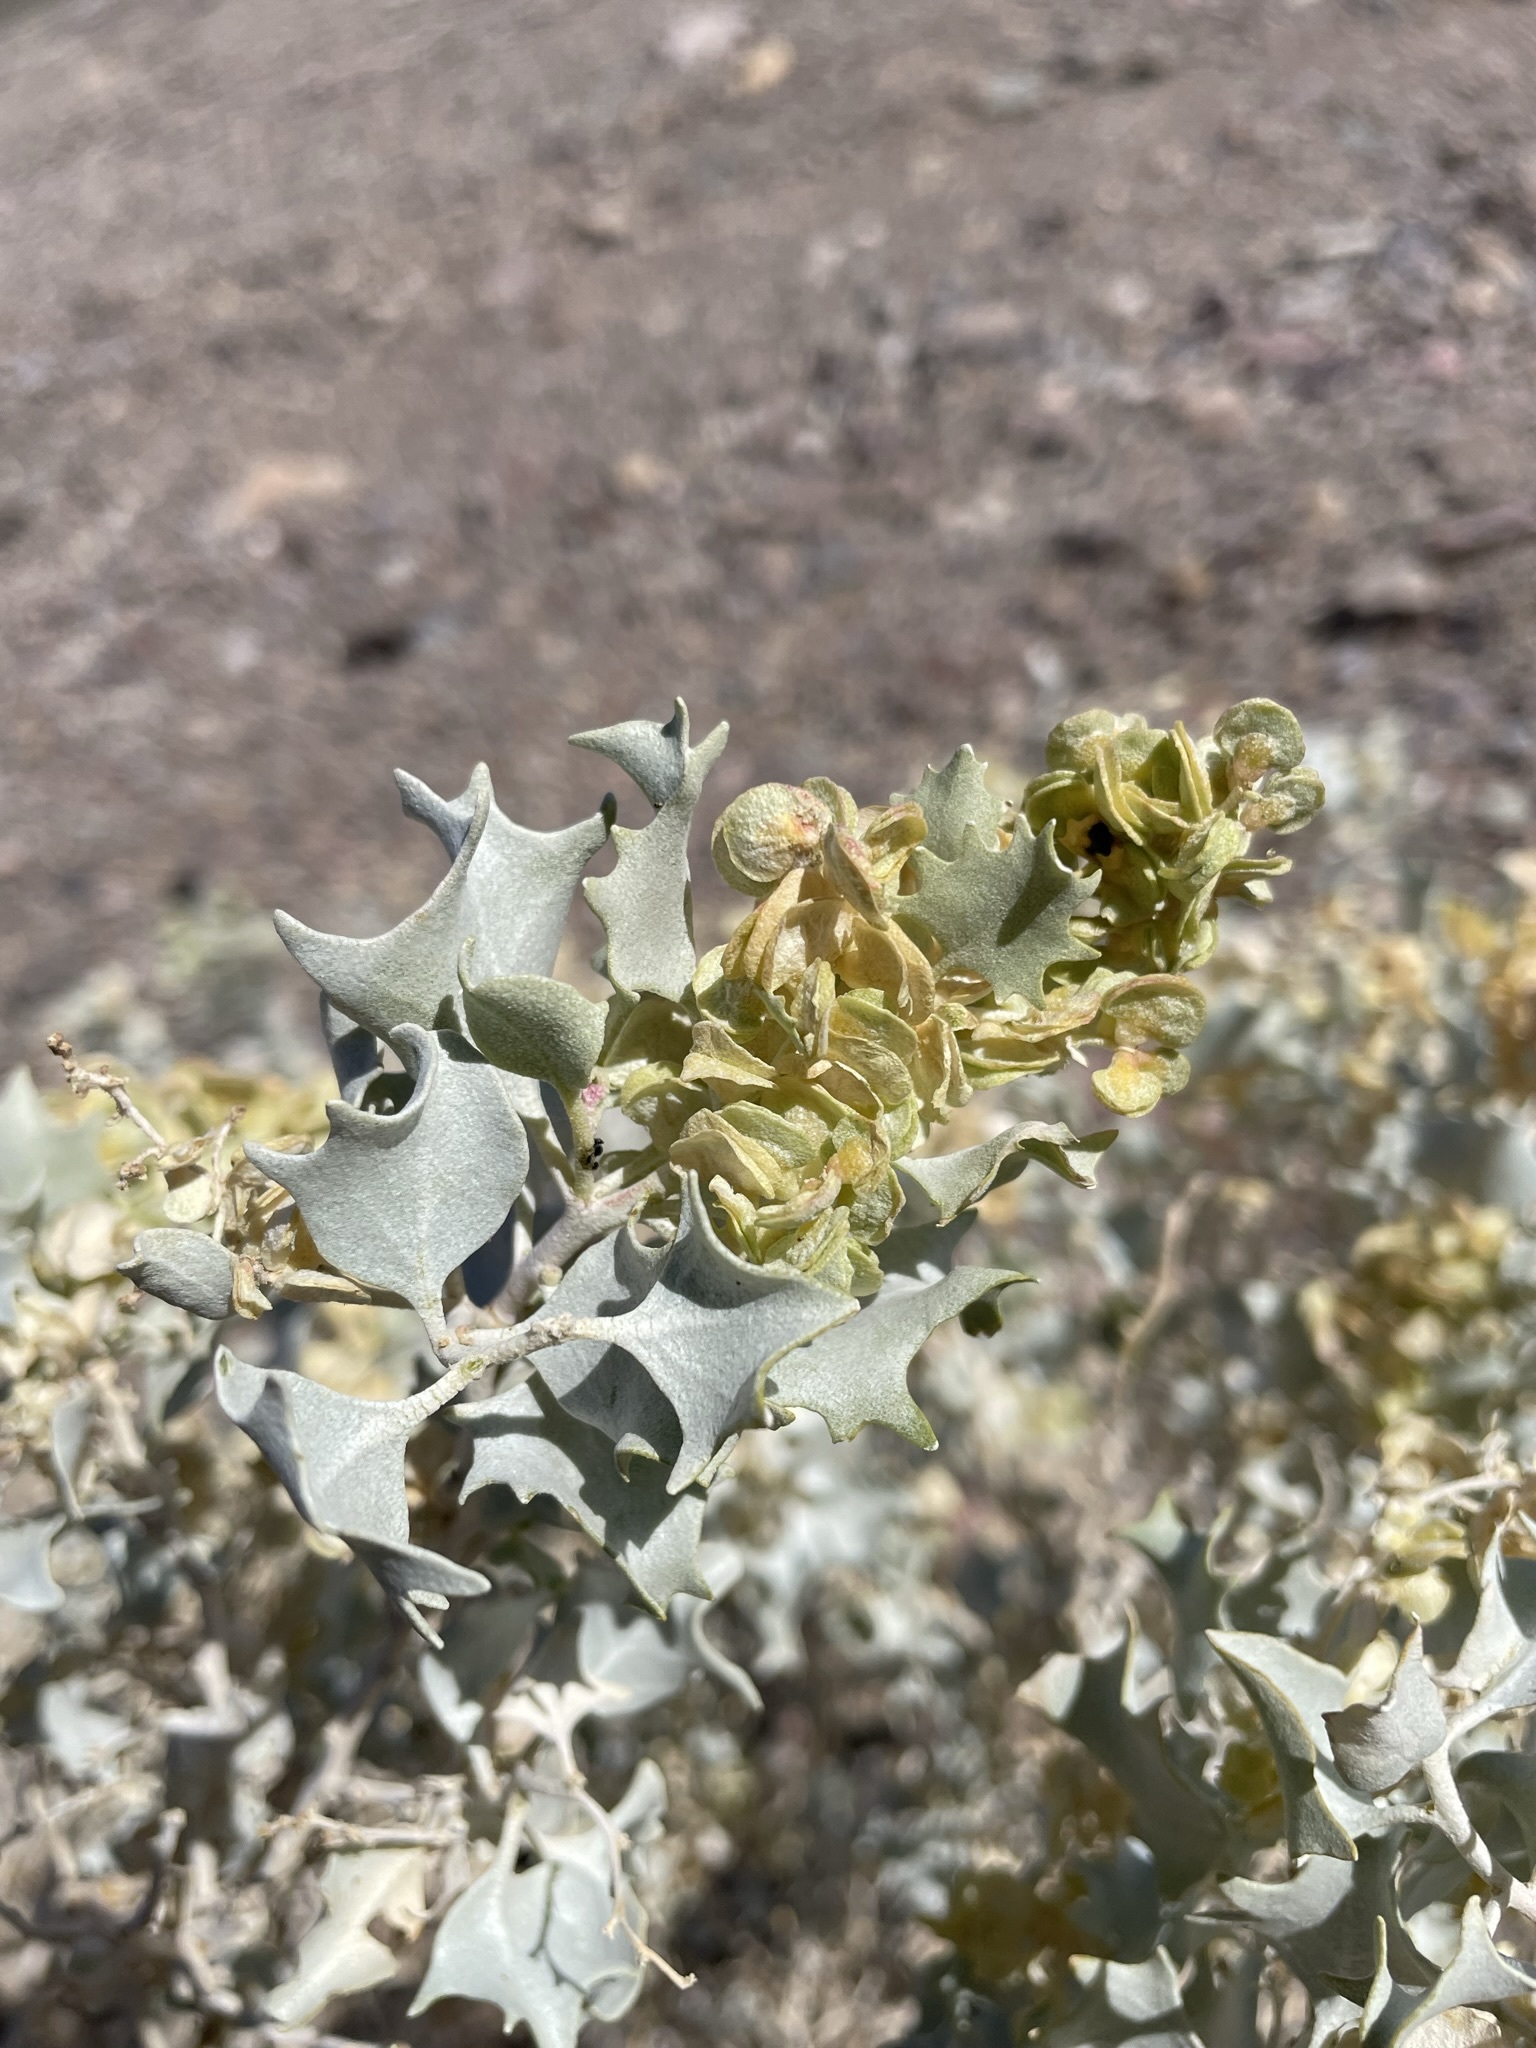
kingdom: Plantae
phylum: Tracheophyta
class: Magnoliopsida
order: Caryophyllales
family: Amaranthaceae
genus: Atriplex
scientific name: Atriplex hymenelytra
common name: Desert-holly
